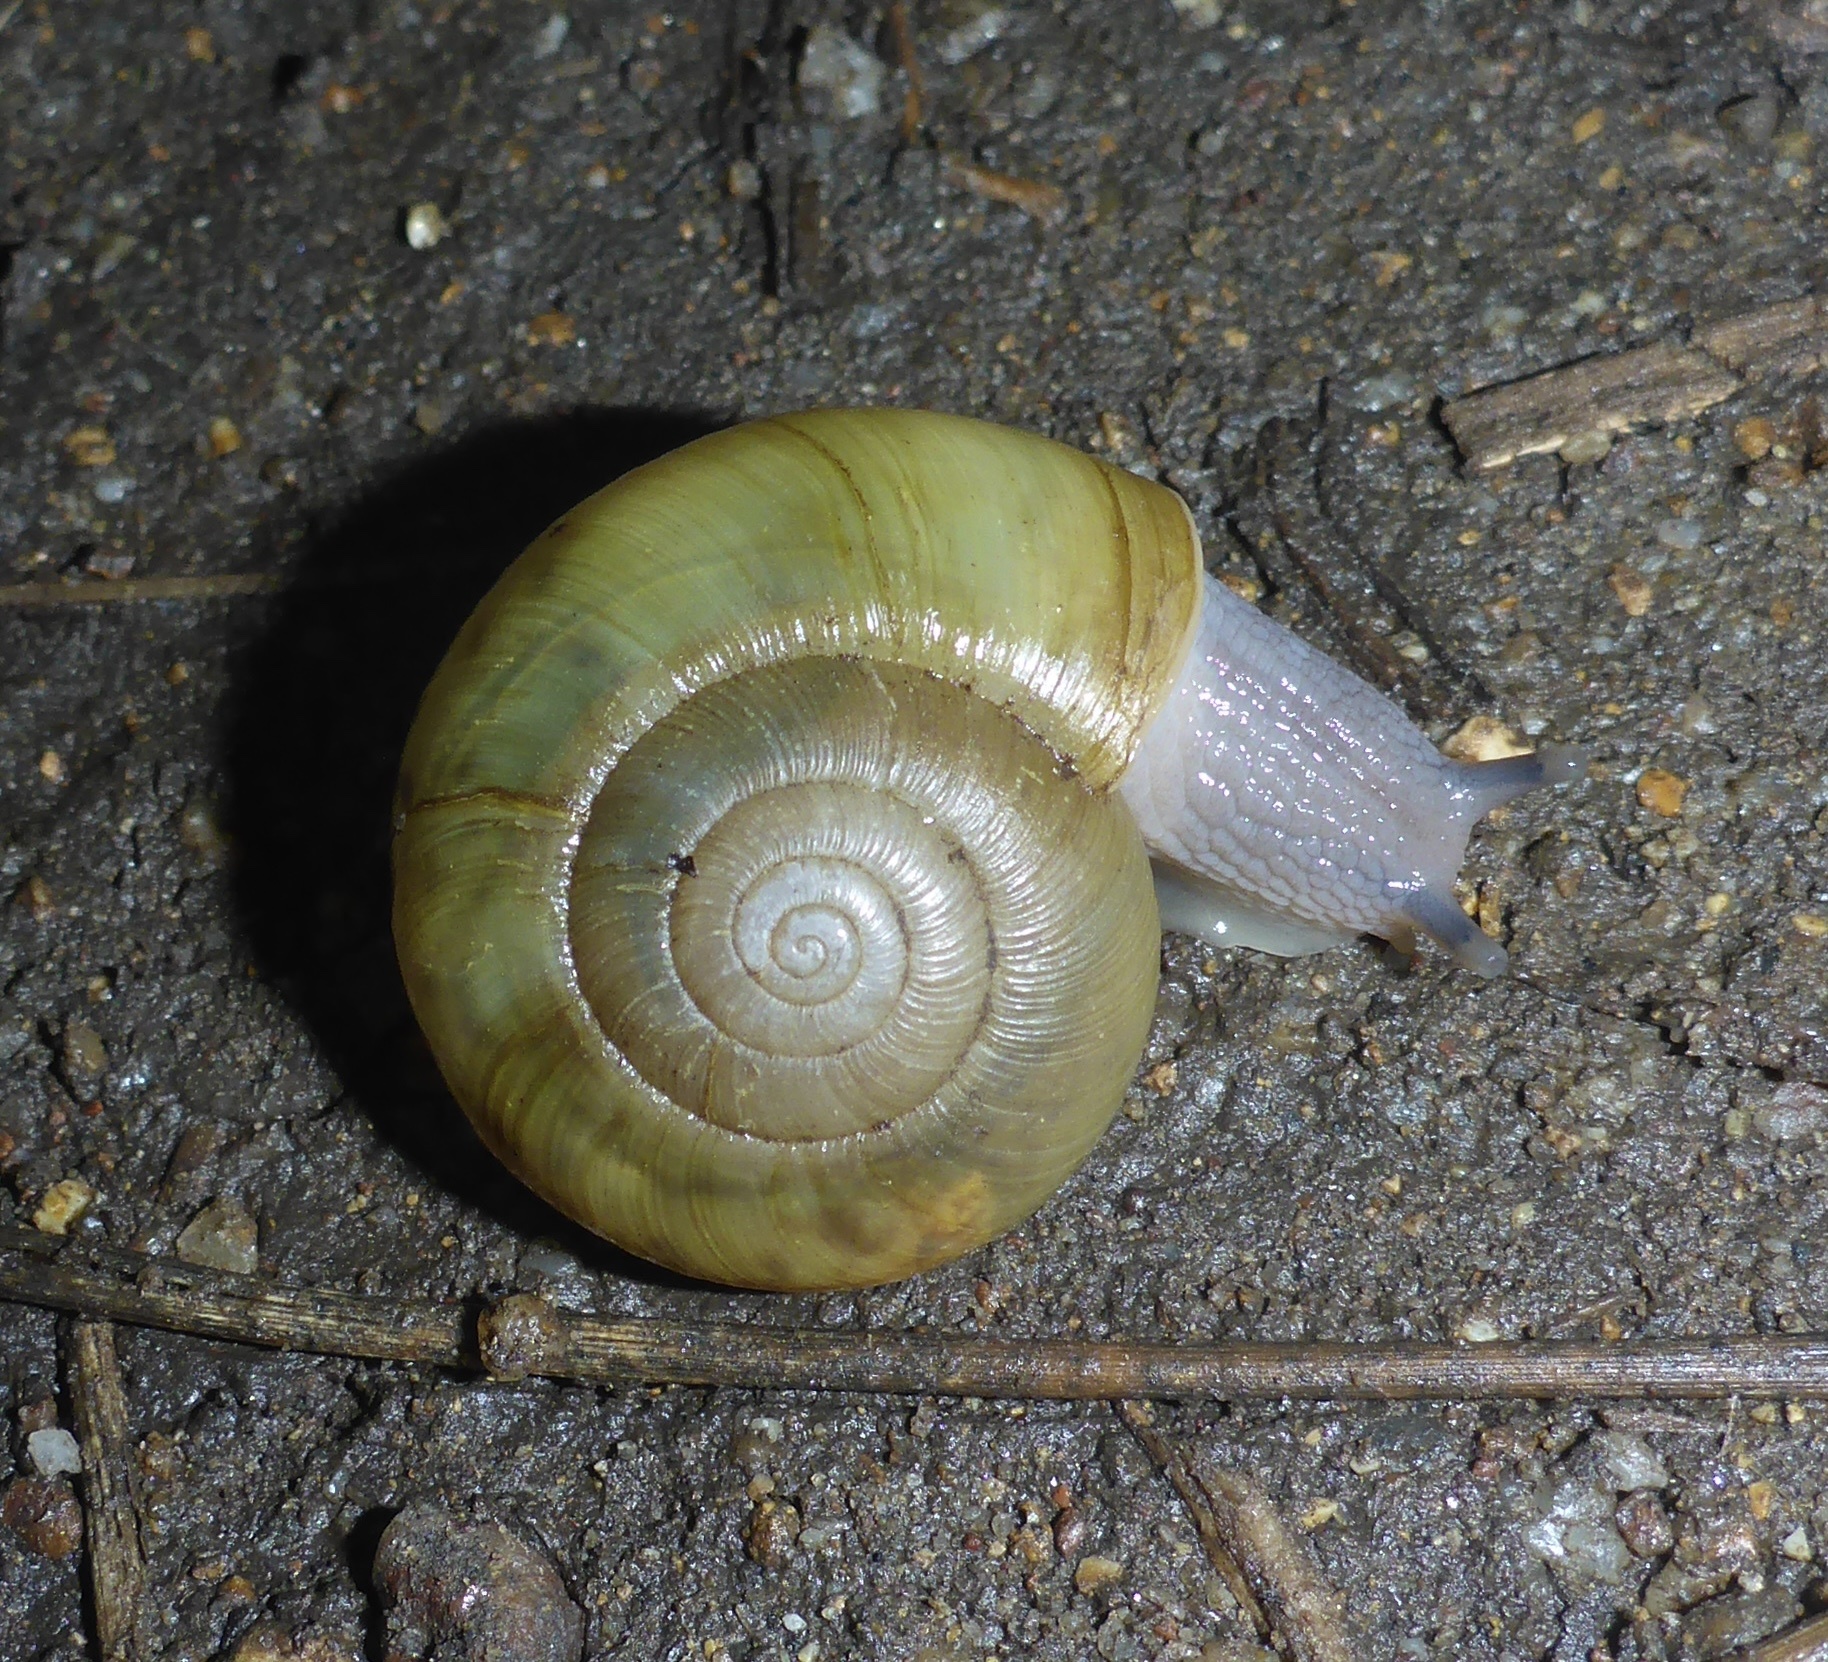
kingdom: Animalia
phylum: Mollusca
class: Gastropoda
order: Stylommatophora
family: Haplotrematidae
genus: Haplotrema
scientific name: Haplotrema minimum
